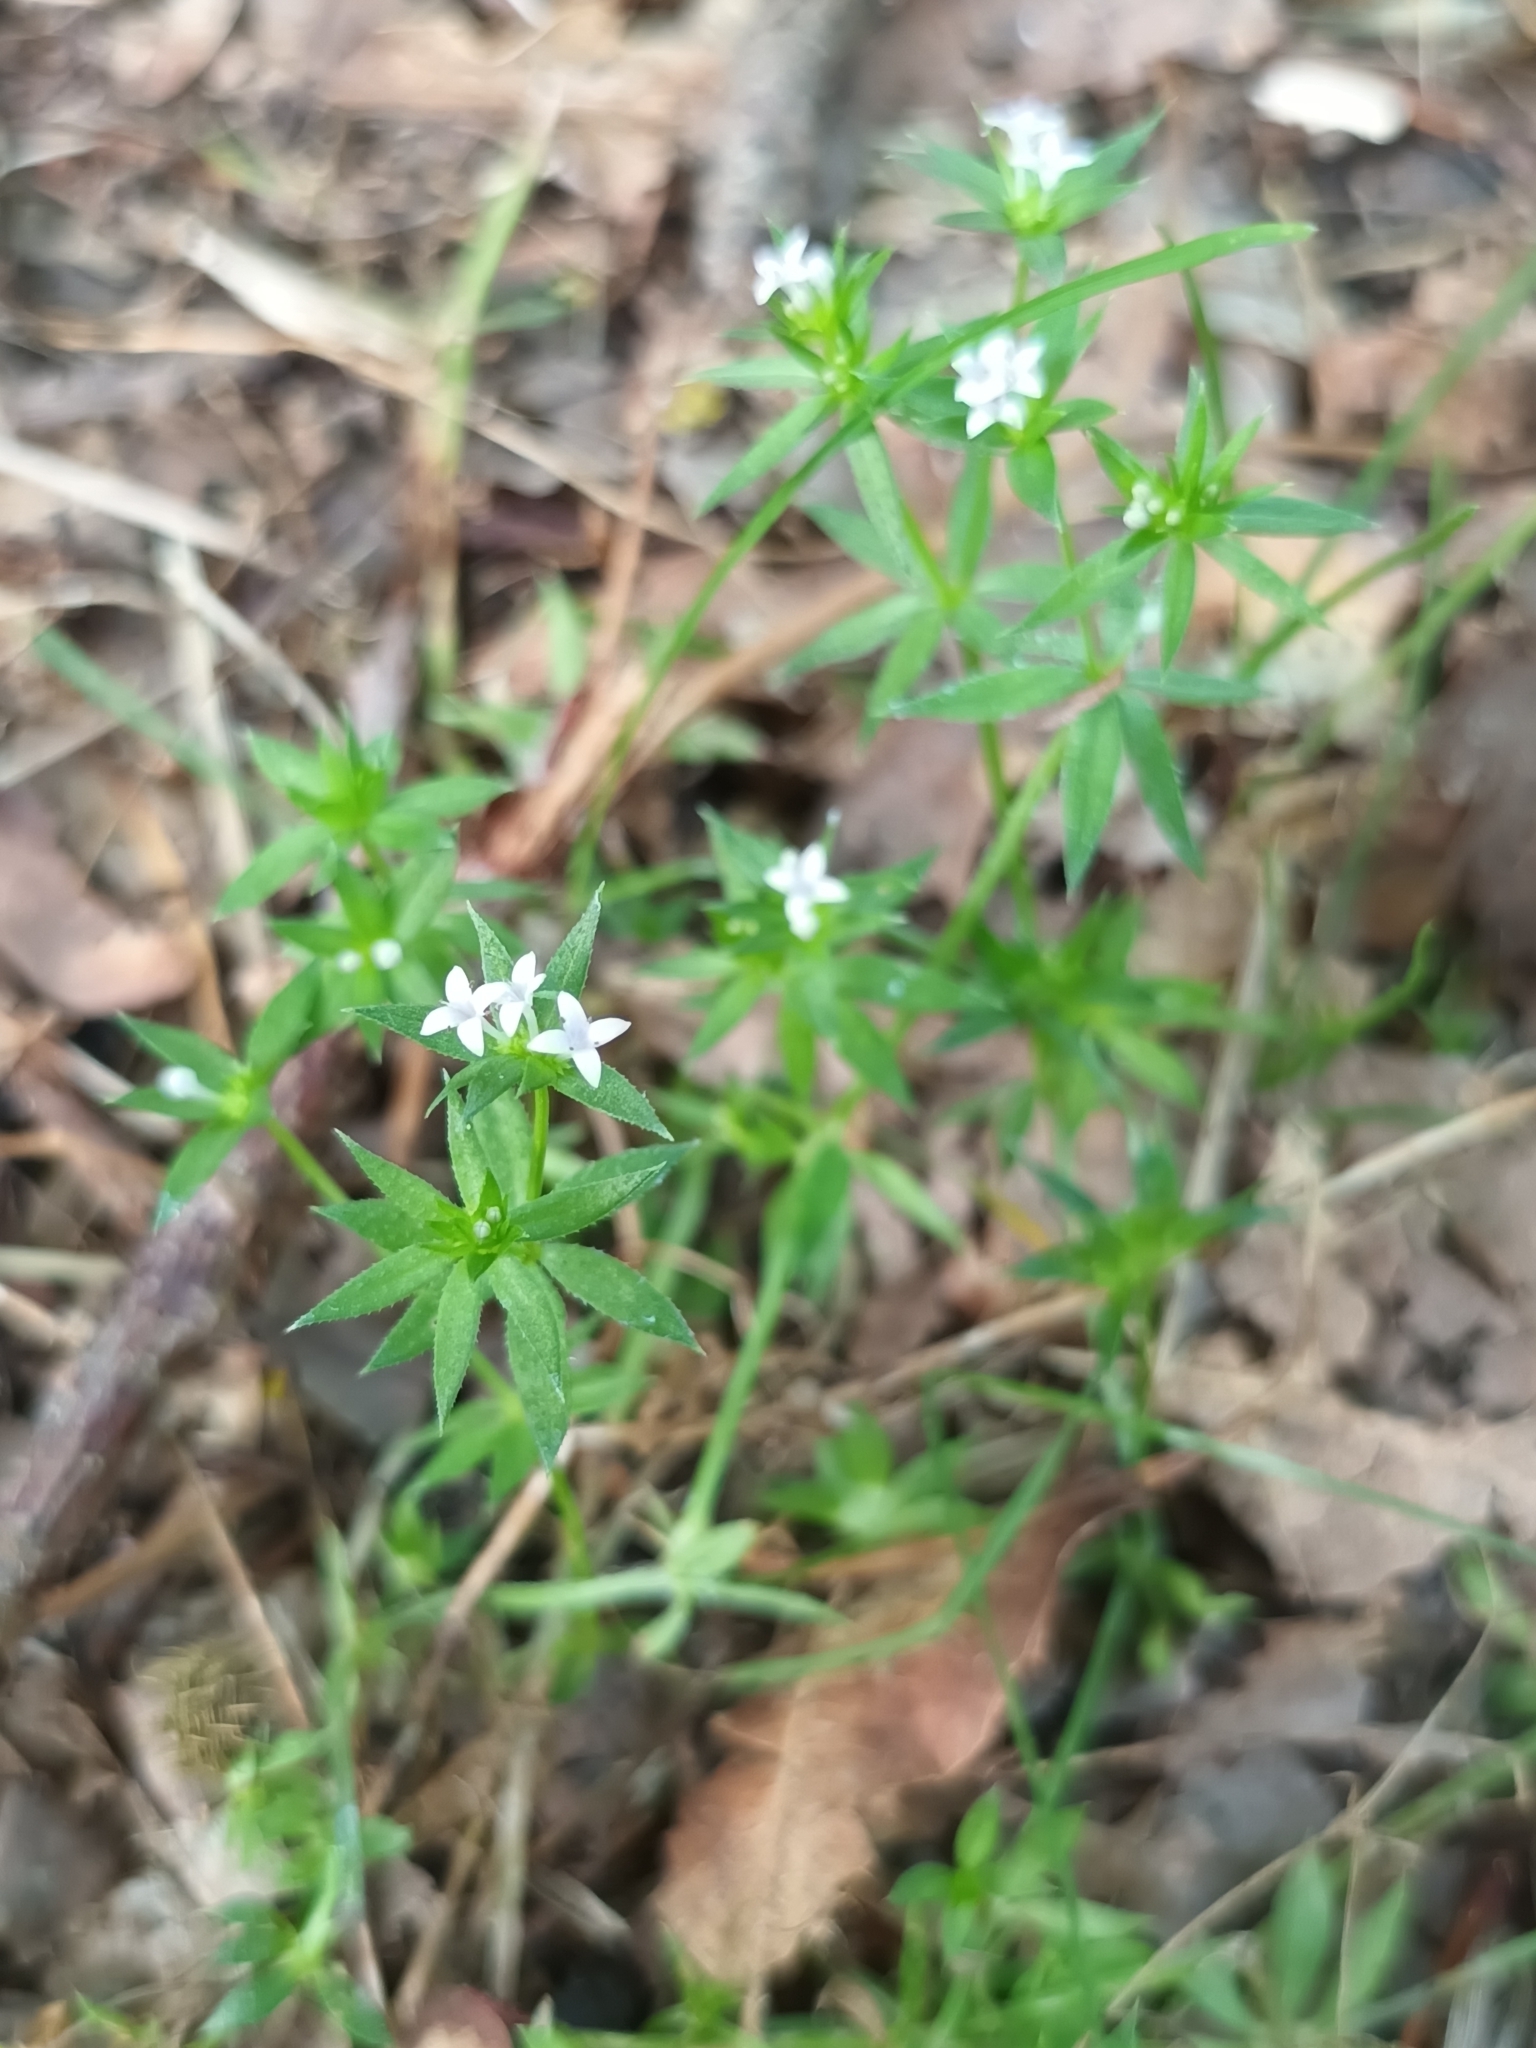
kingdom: Plantae
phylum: Tracheophyta
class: Magnoliopsida
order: Gentianales
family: Rubiaceae
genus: Sherardia
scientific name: Sherardia arvensis
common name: Field madder
